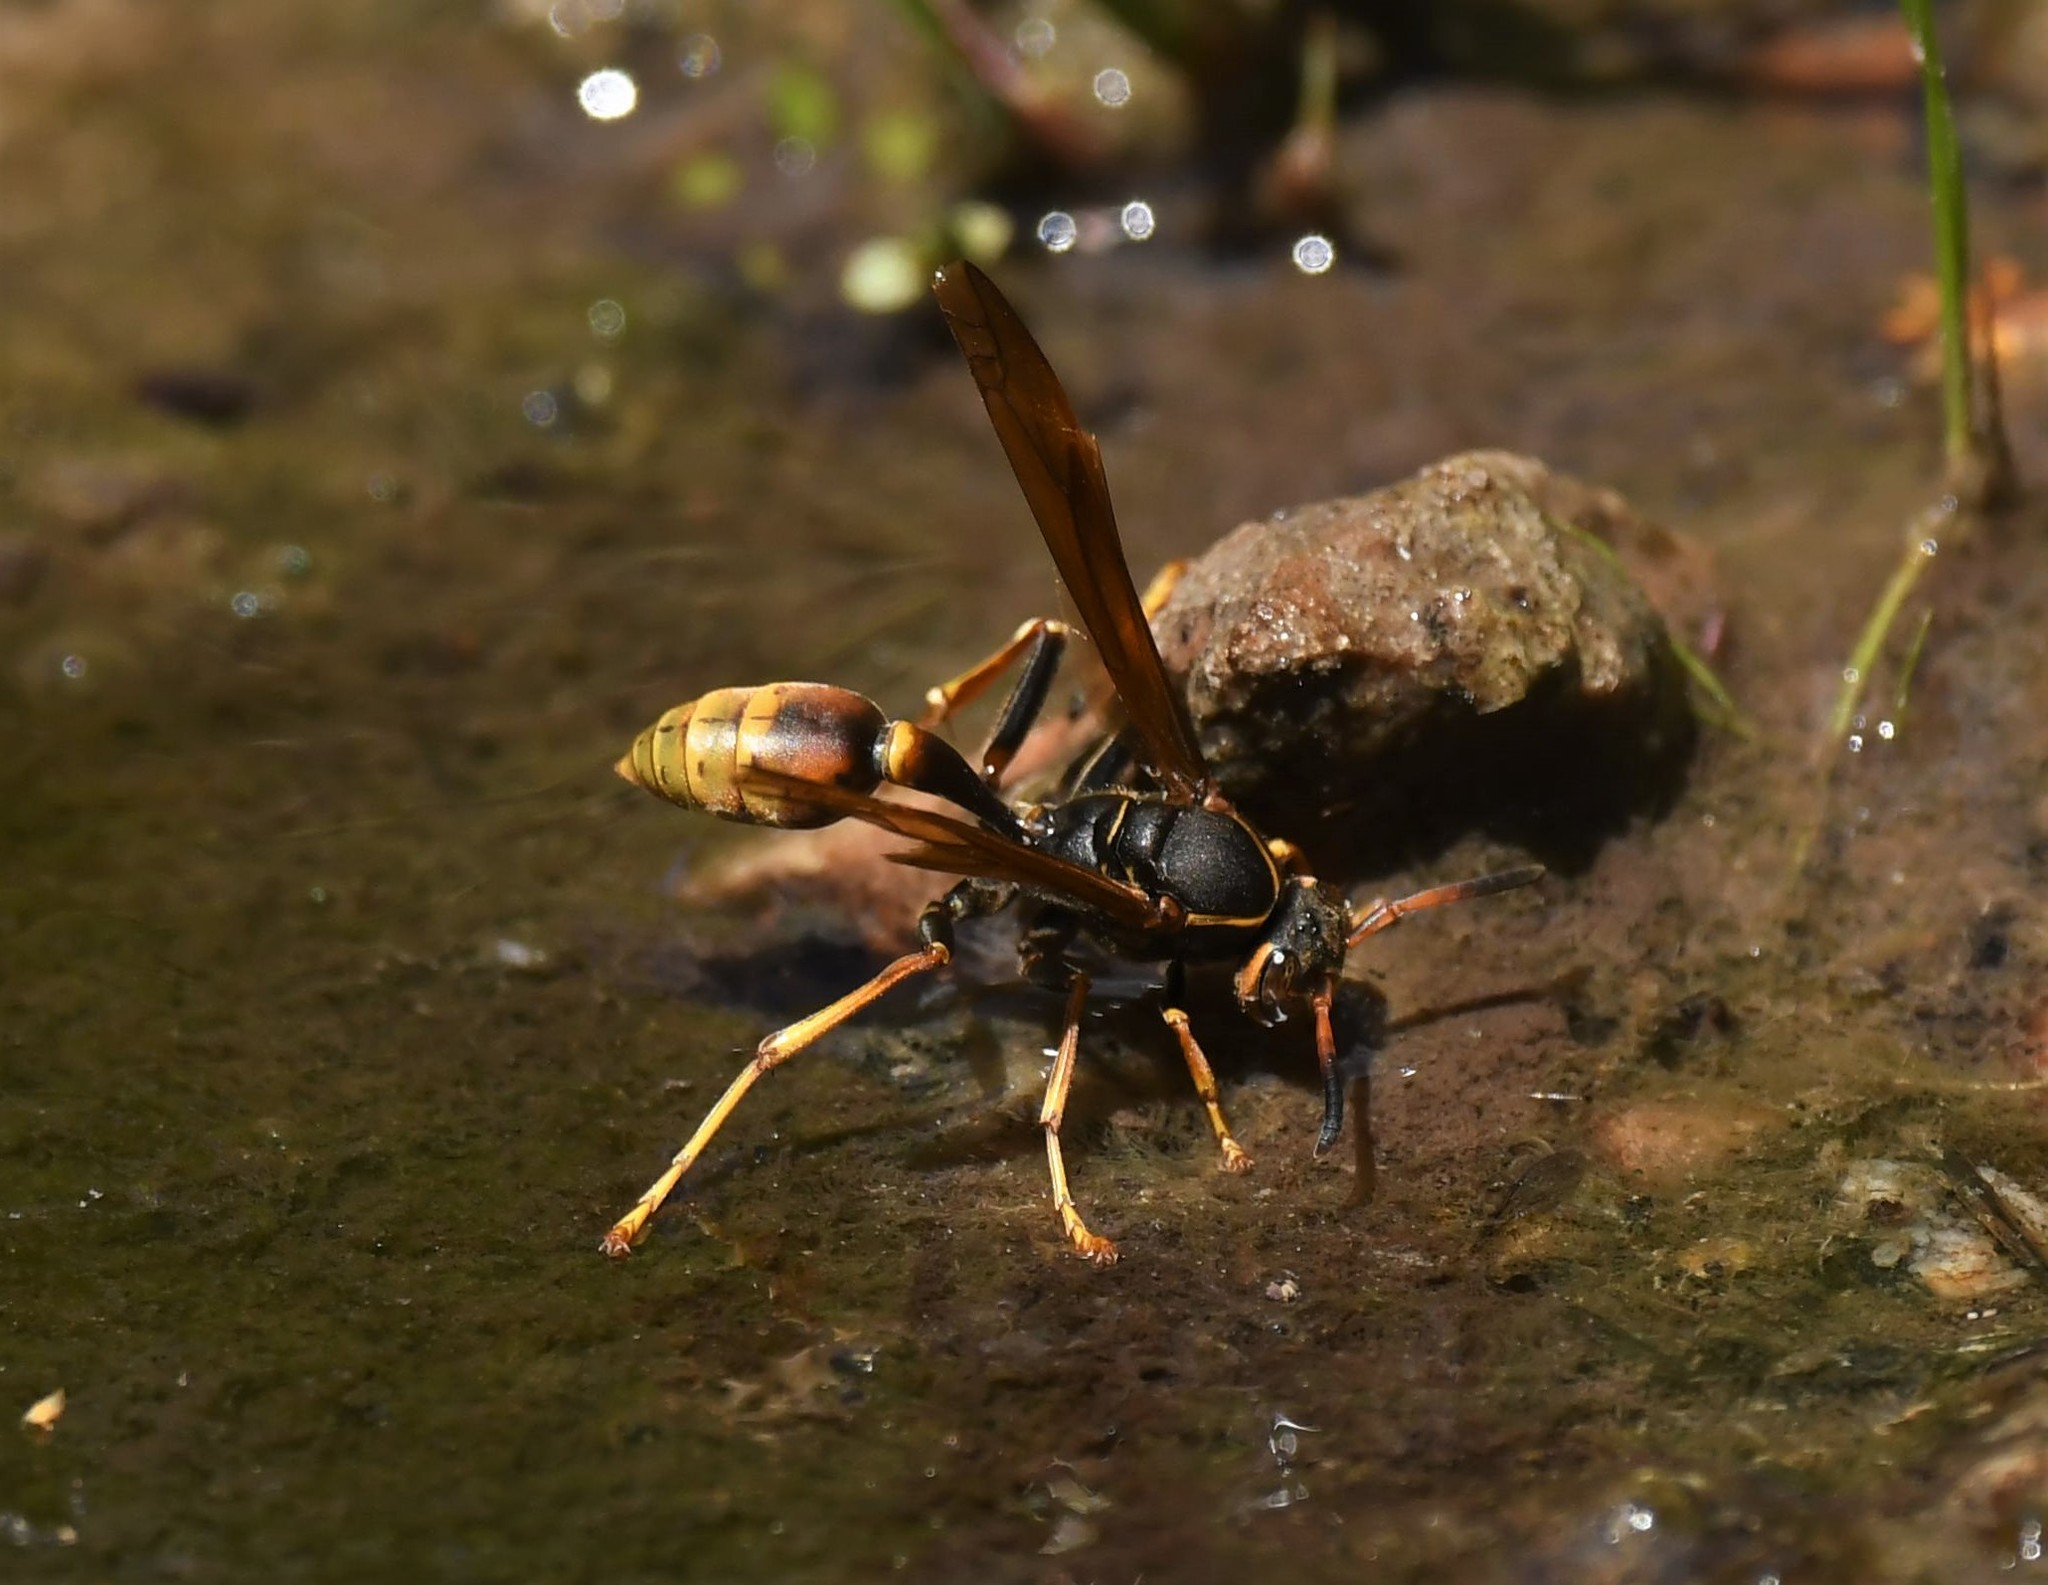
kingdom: Animalia
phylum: Arthropoda
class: Insecta
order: Hymenoptera
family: Vespidae
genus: Mischocyttarus
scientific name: Mischocyttarus flavitarsis
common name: Wasp
